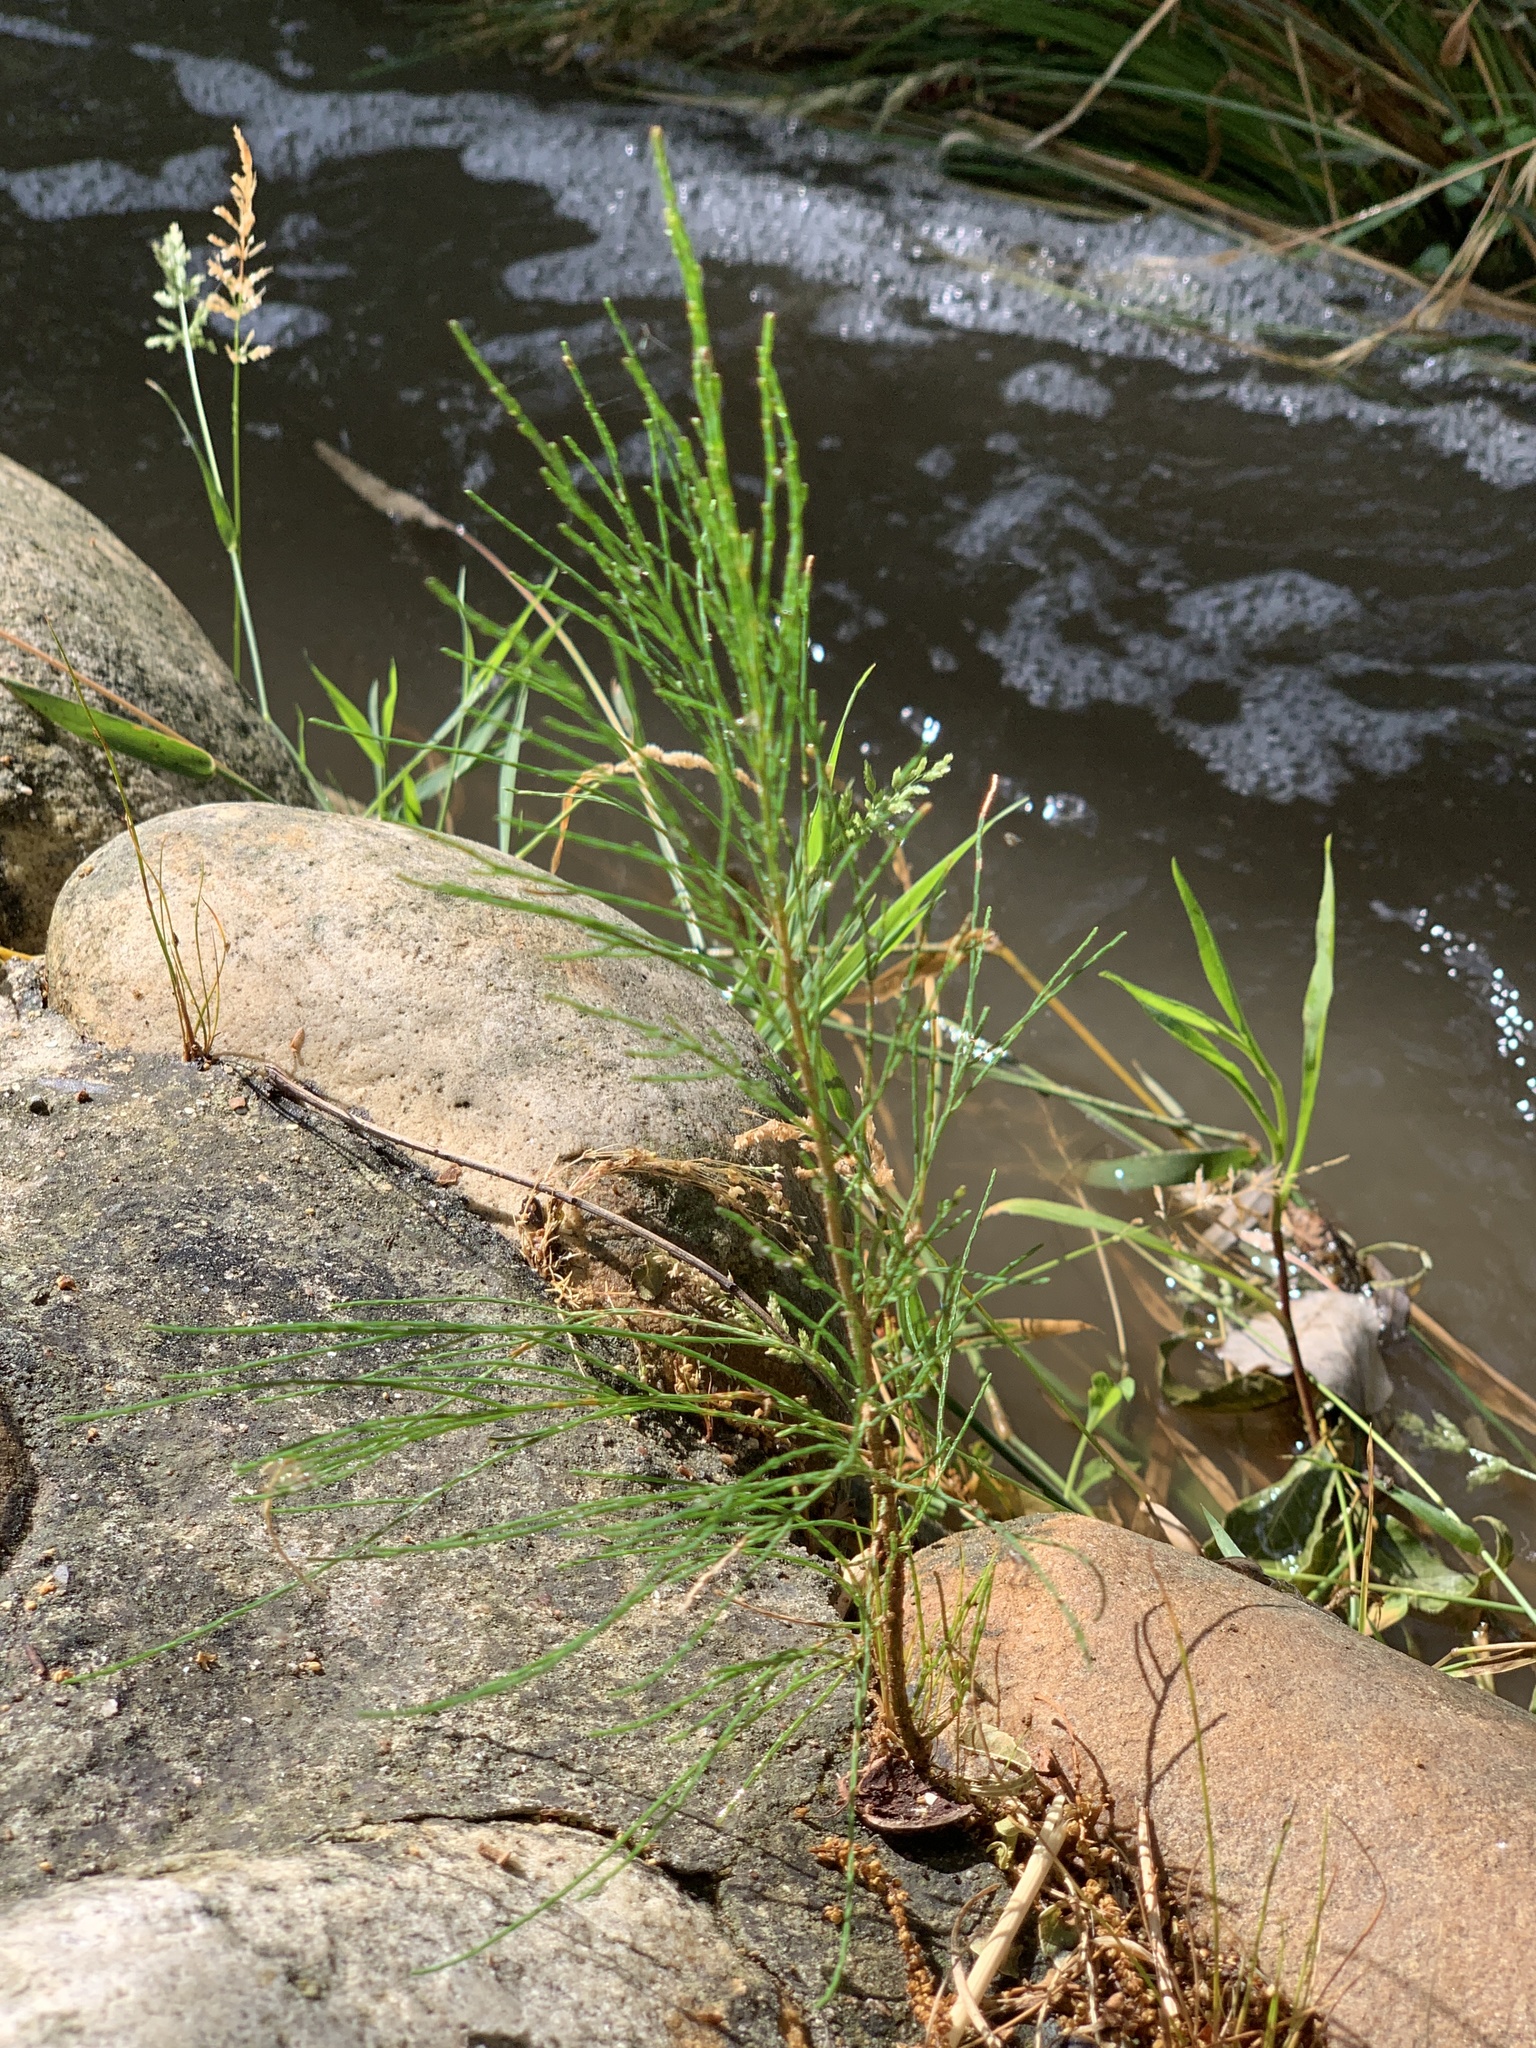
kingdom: Plantae
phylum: Tracheophyta
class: Magnoliopsida
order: Fagales
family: Casuarinaceae
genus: Casuarina
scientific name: Casuarina cunninghamiana
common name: River sheoak
